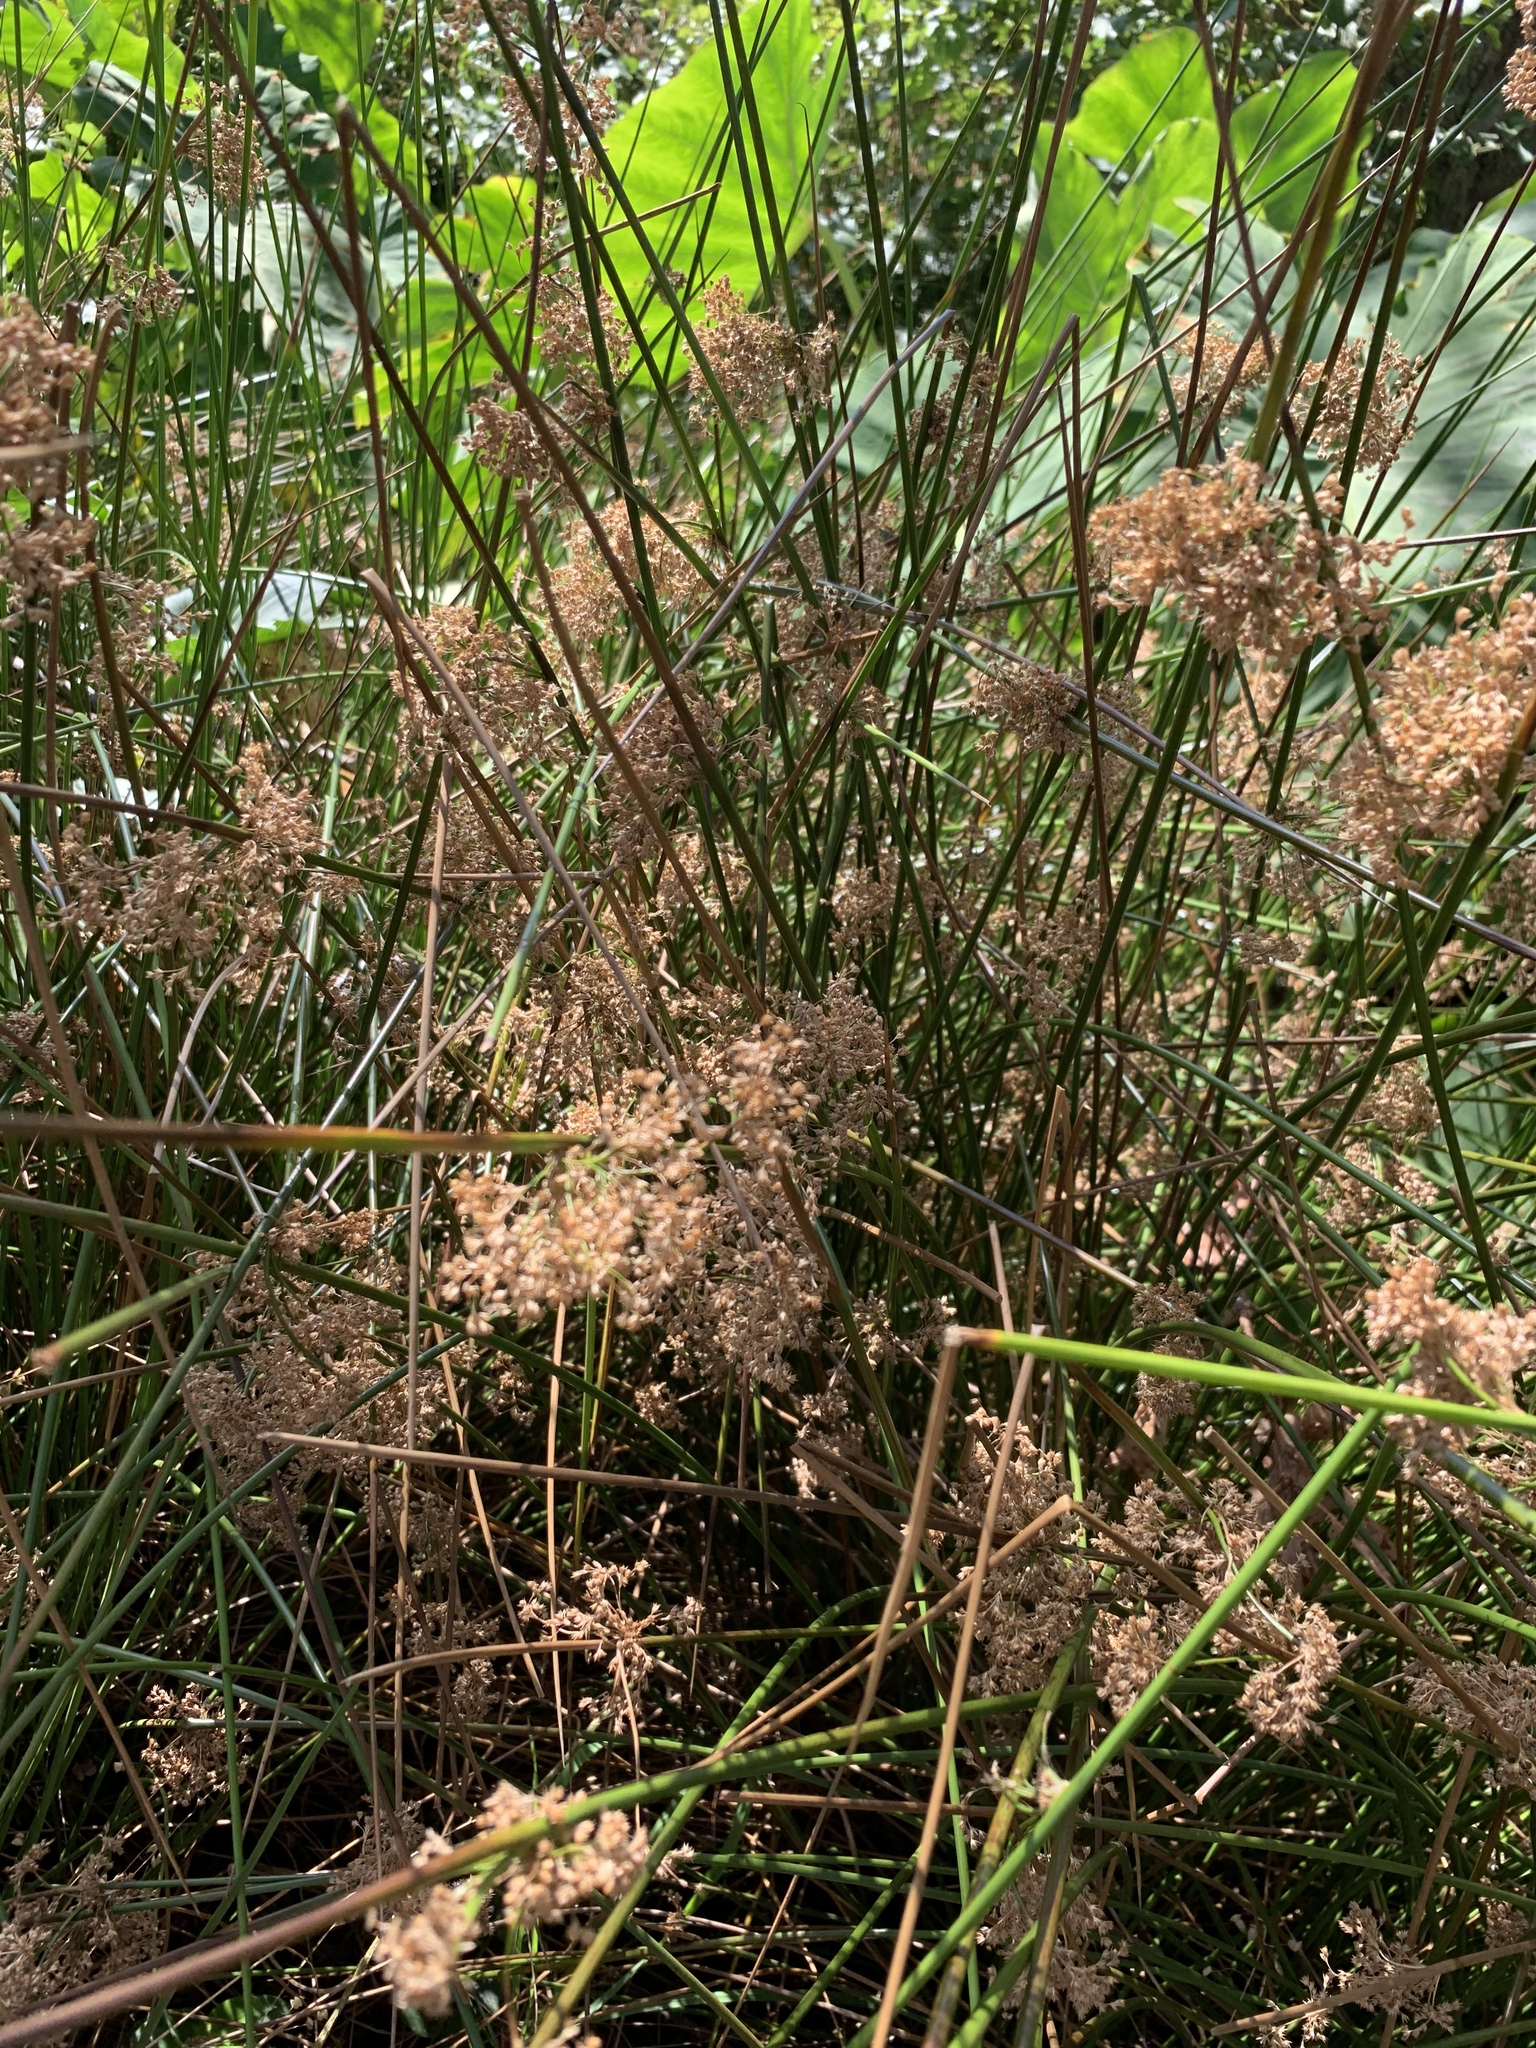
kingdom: Plantae
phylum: Tracheophyta
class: Liliopsida
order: Poales
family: Juncaceae
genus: Juncus
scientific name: Juncus effusus
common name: Soft rush
